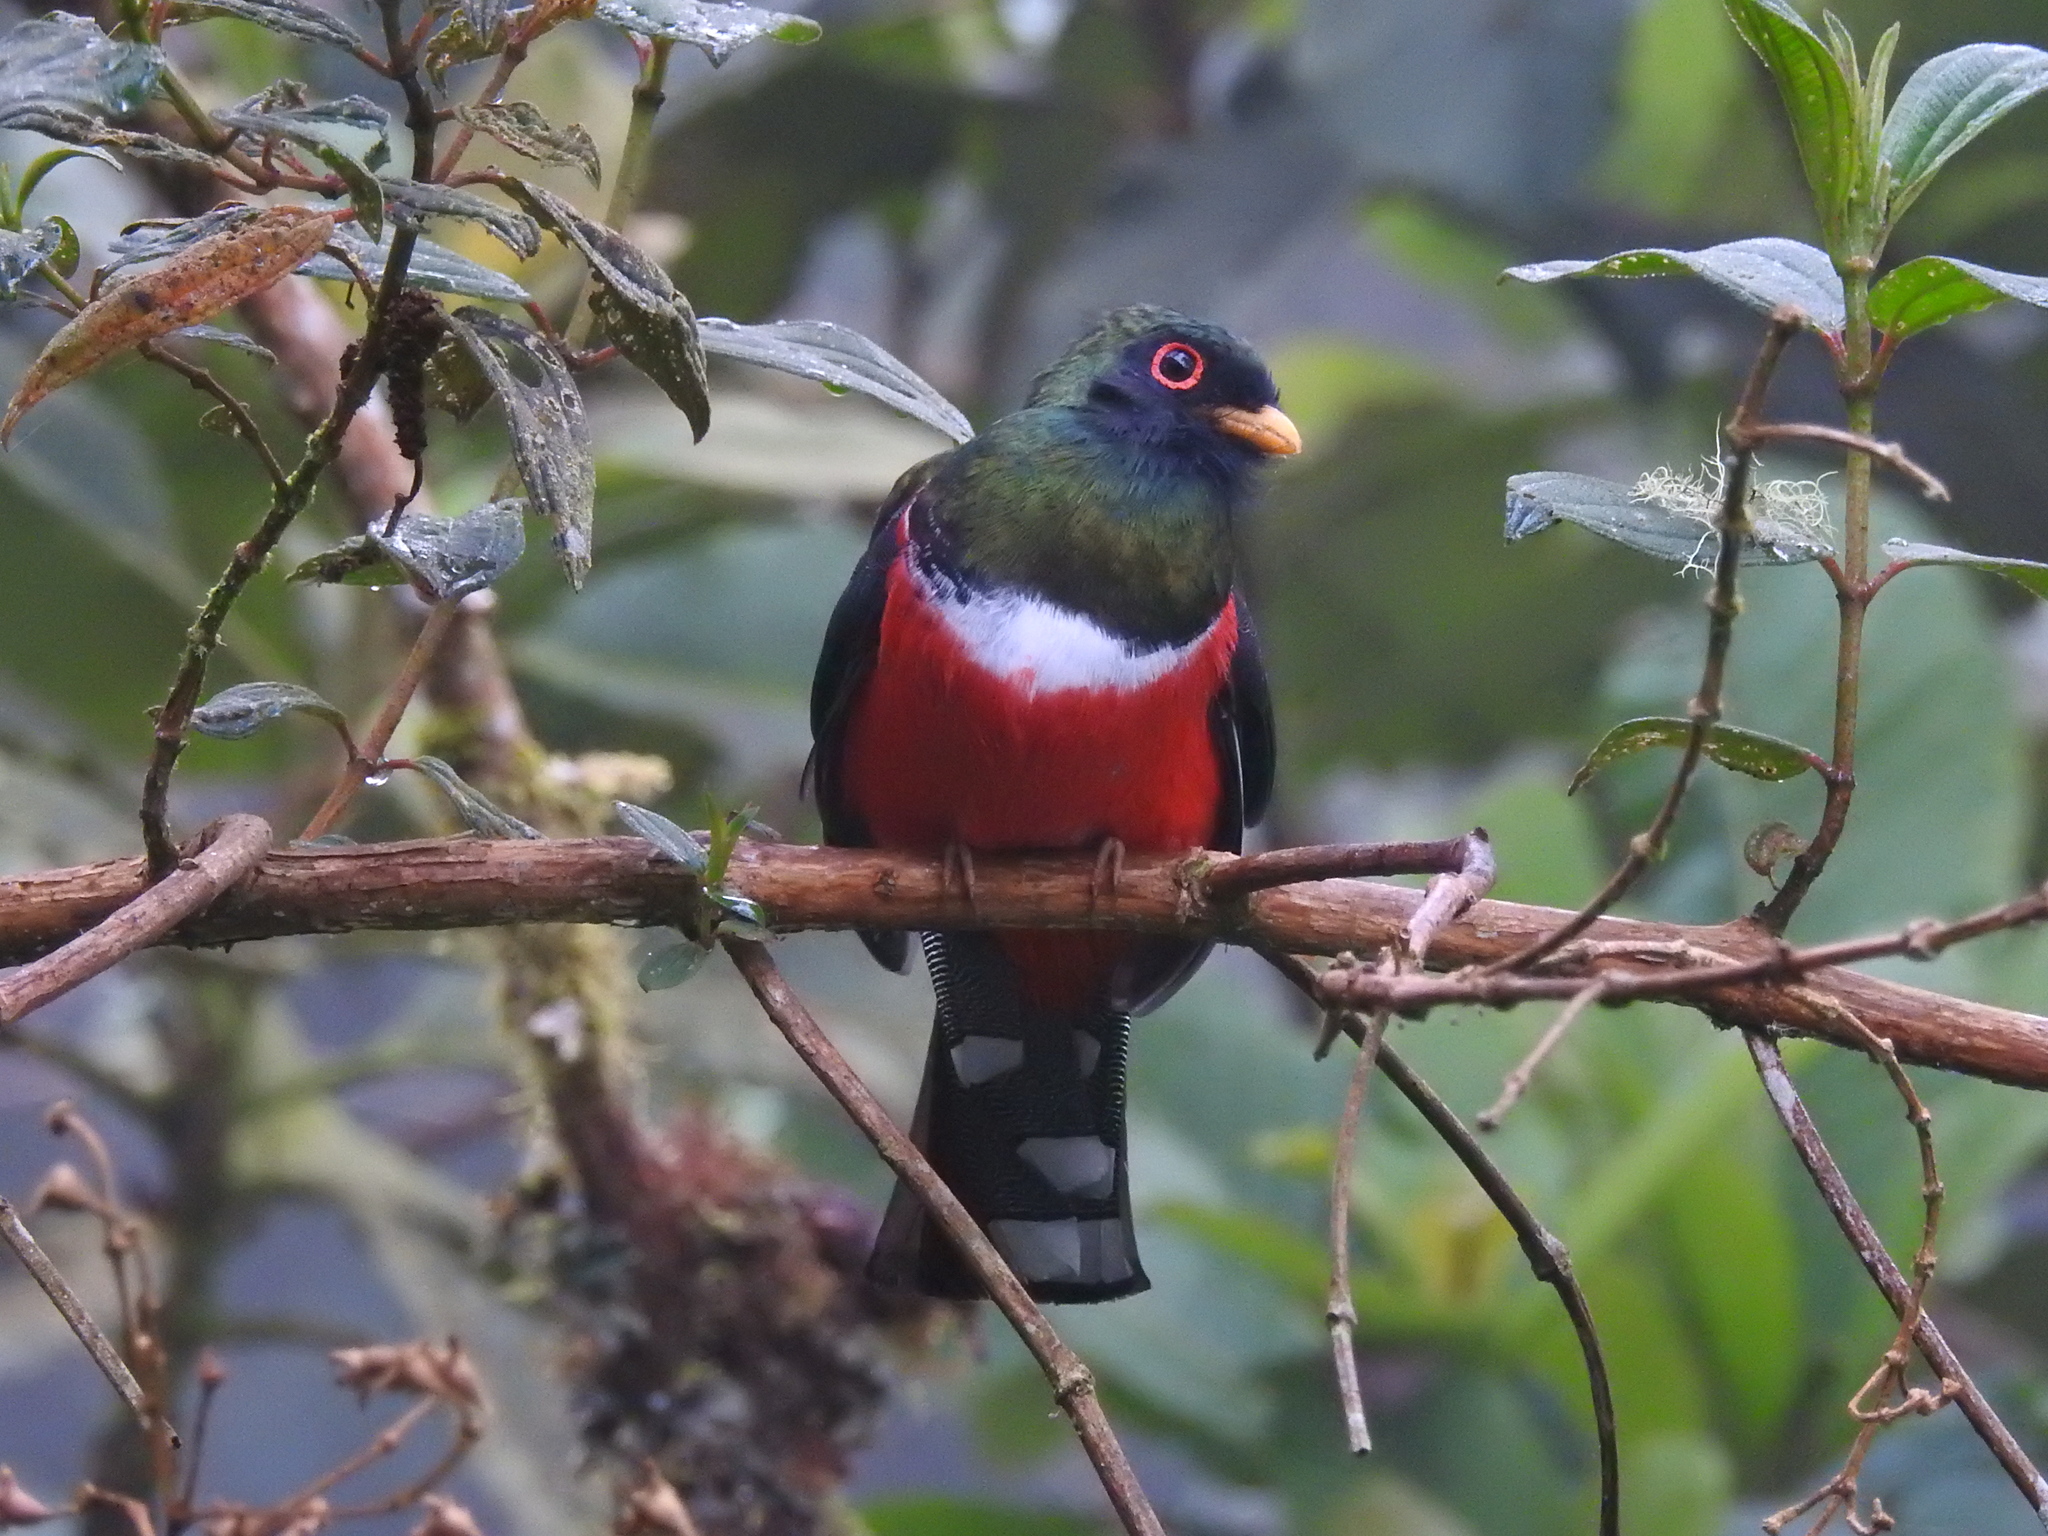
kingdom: Animalia
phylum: Chordata
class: Aves
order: Trogoniformes
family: Trogonidae
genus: Trogon
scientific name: Trogon personatus
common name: Masked trogon
